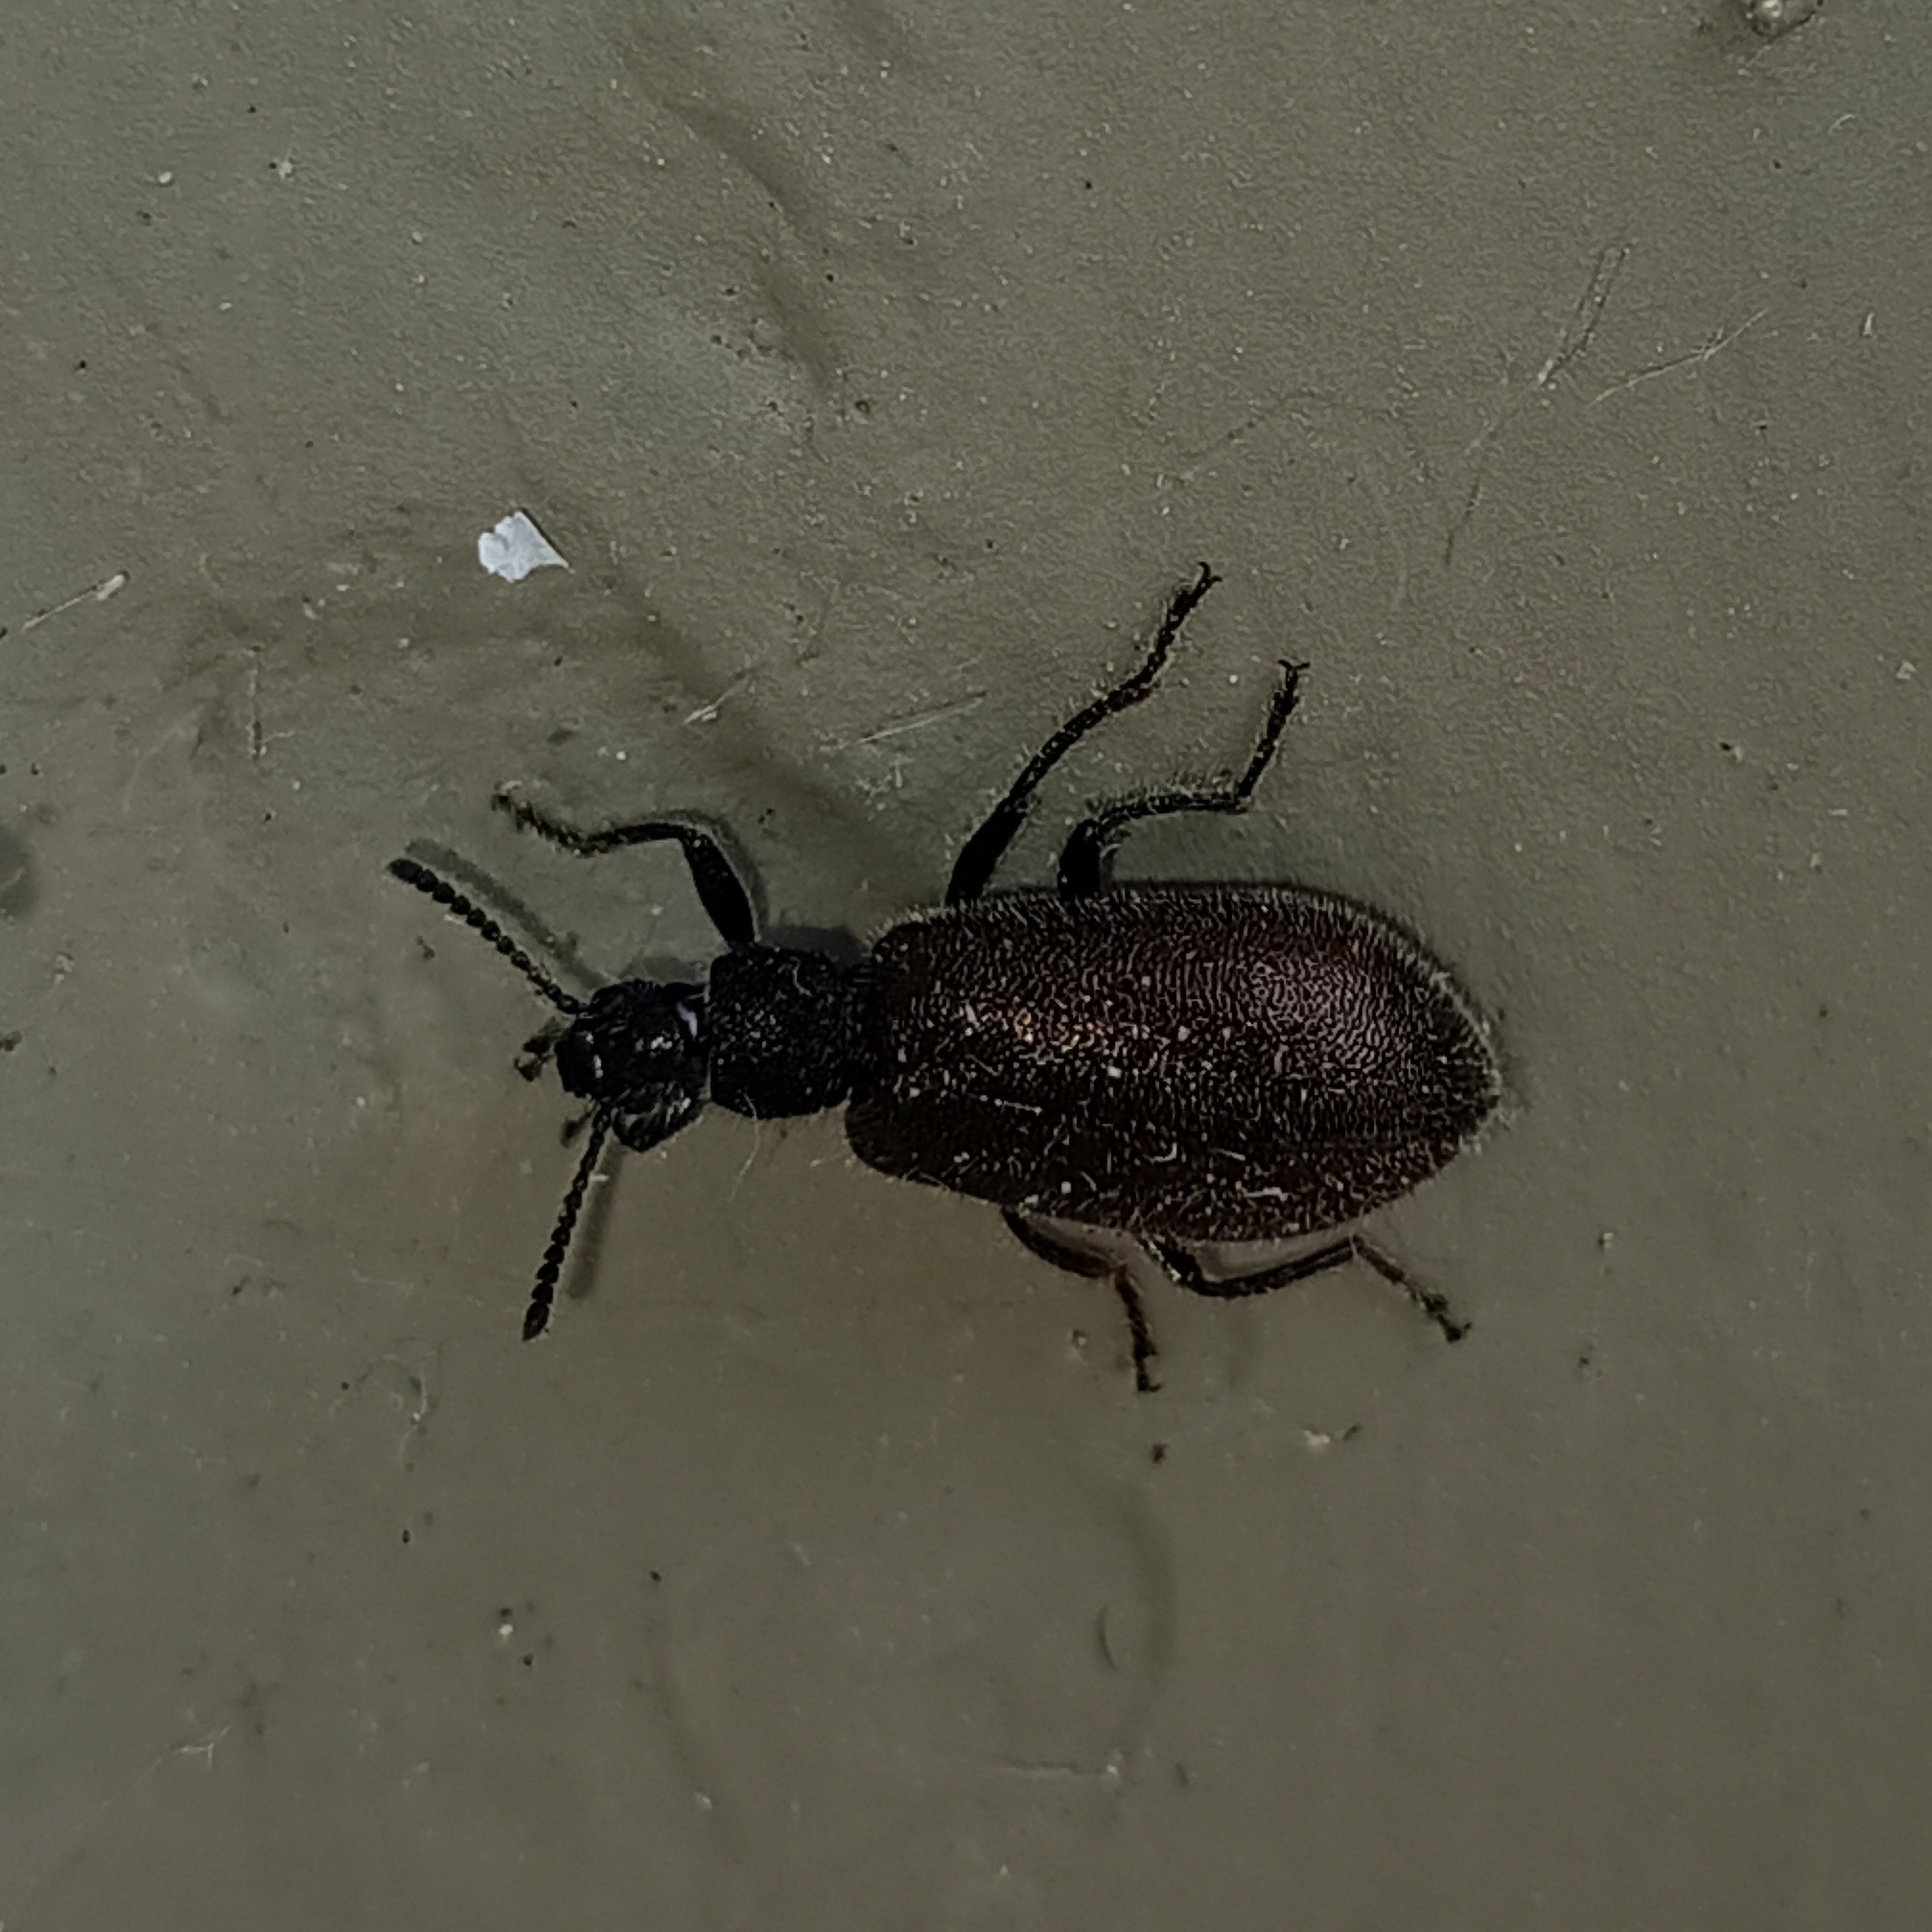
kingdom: Animalia
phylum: Arthropoda
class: Insecta
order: Coleoptera
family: Tenebrionidae
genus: Lagria
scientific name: Lagria villosa
